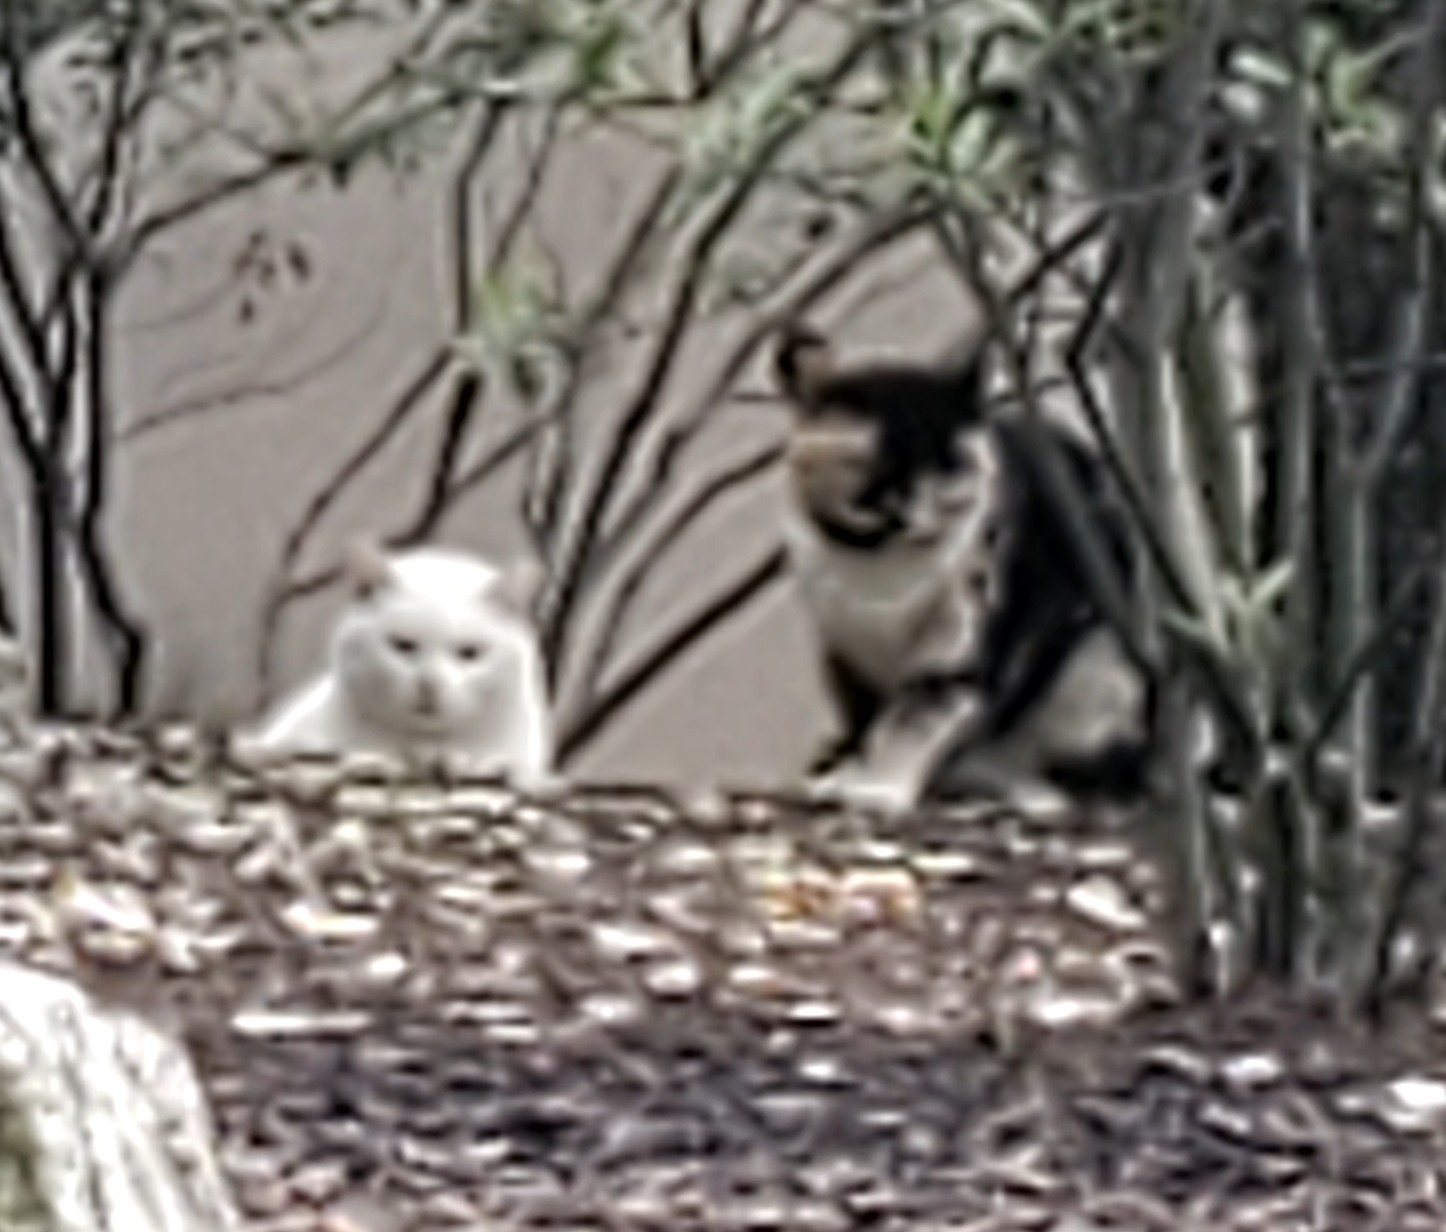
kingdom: Animalia
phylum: Chordata
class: Mammalia
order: Carnivora
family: Felidae
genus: Felis
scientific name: Felis catus
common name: Domestic cat
